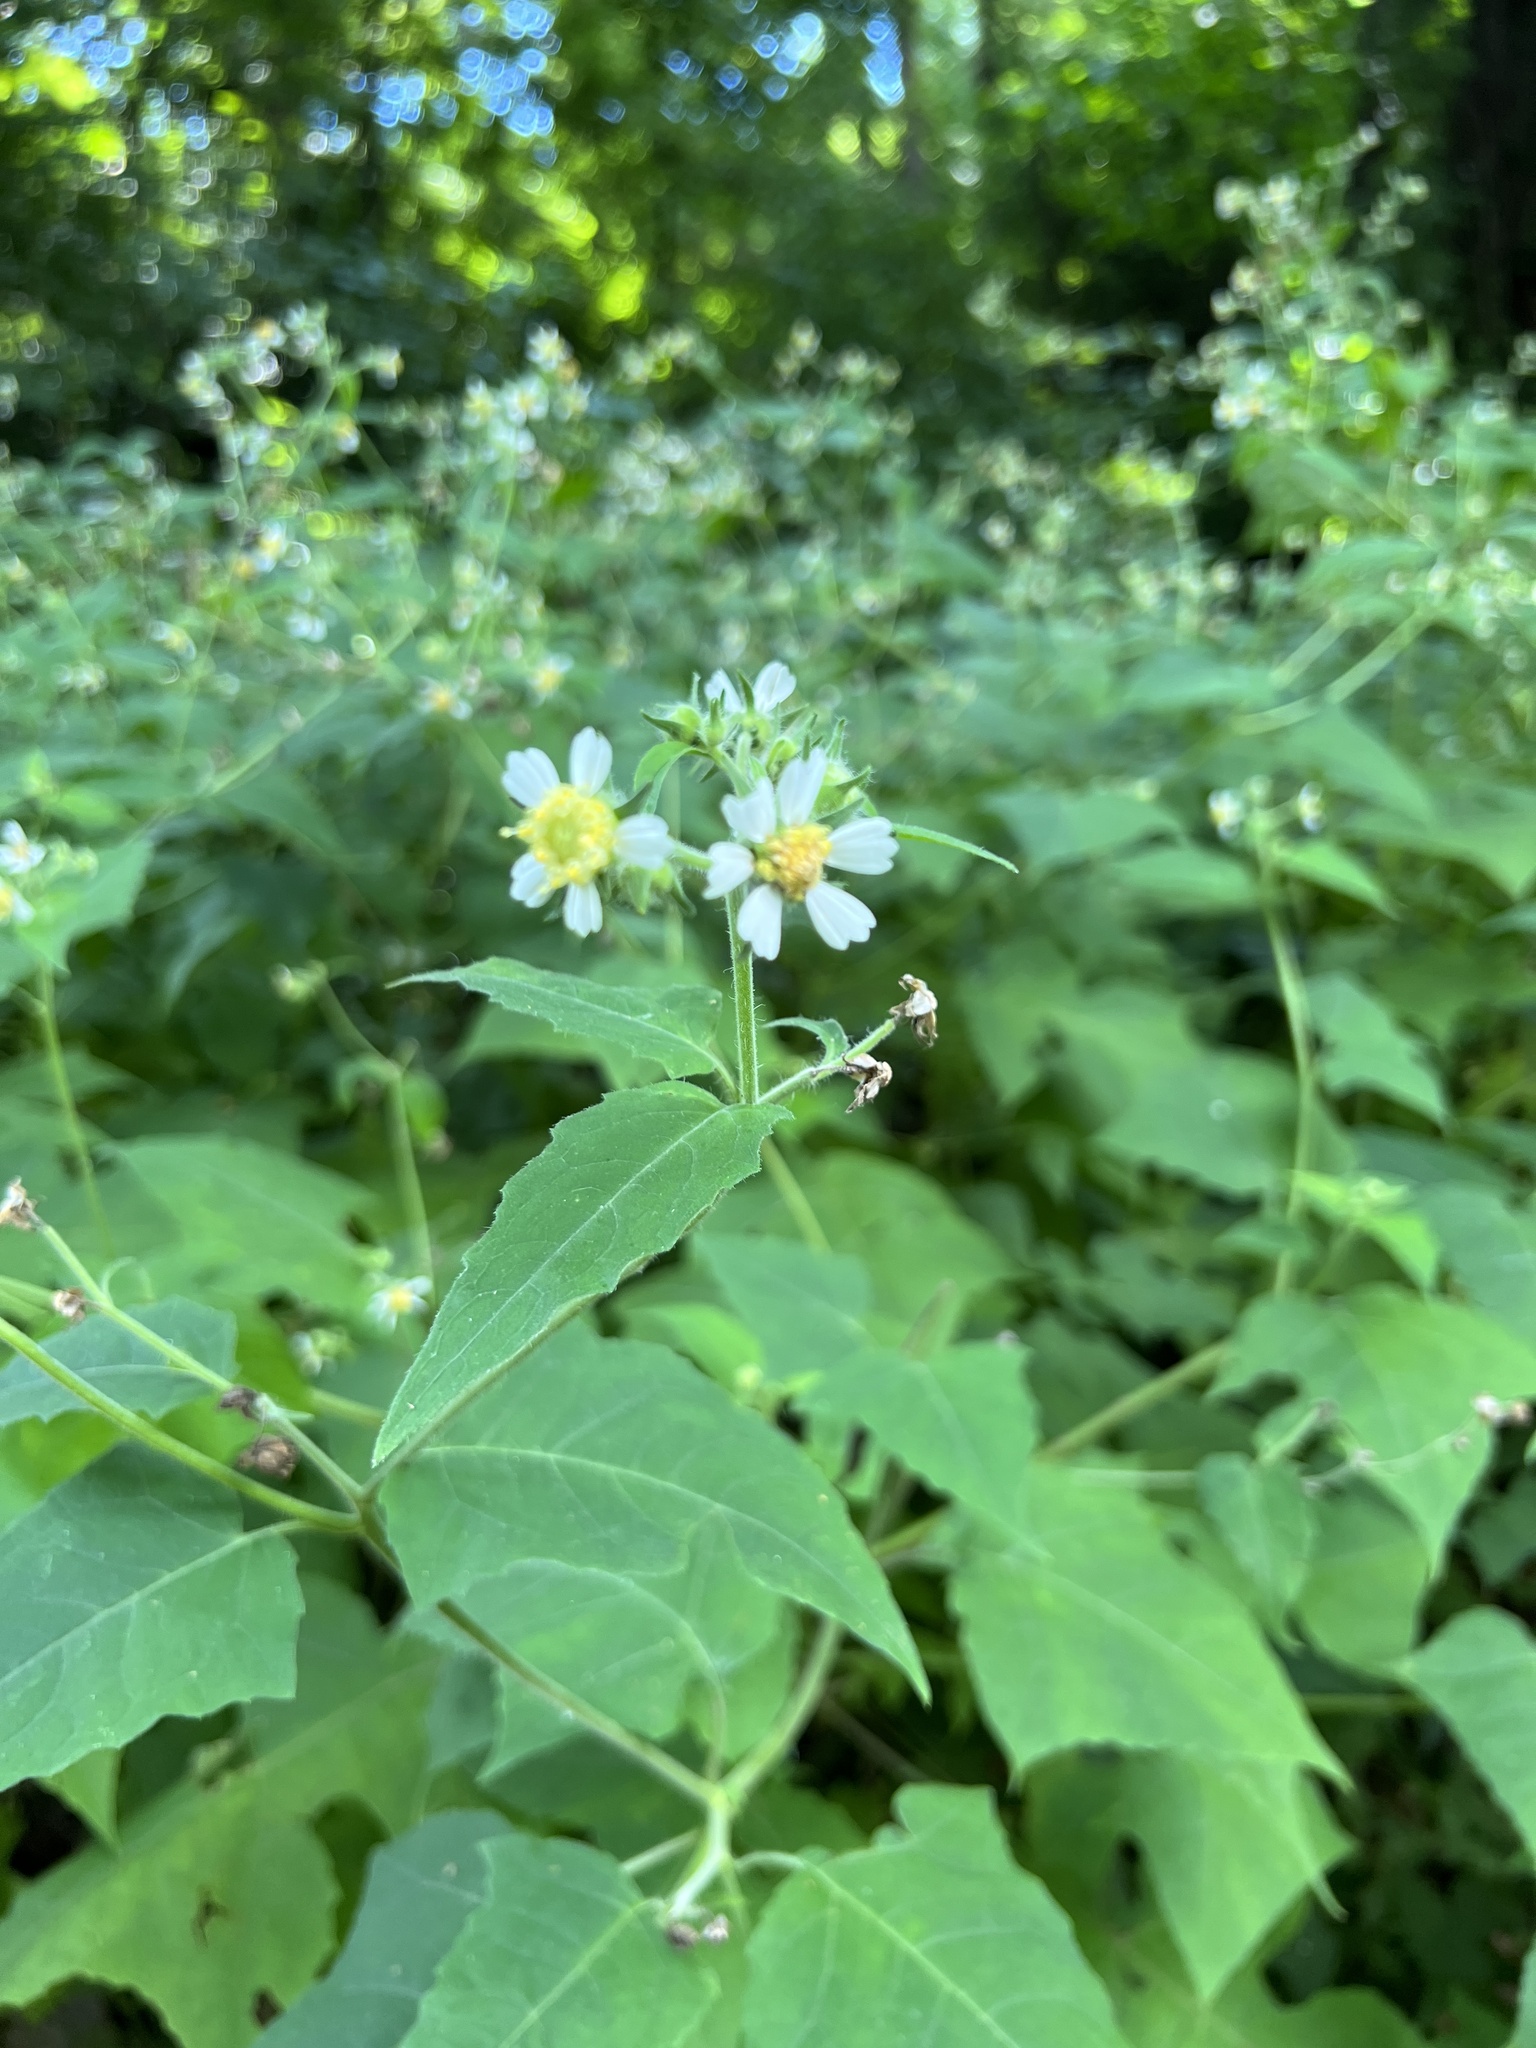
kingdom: Plantae
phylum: Tracheophyta
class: Magnoliopsida
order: Asterales
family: Asteraceae
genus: Polymnia
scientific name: Polymnia canadensis
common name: Pale-flowered leafcup
